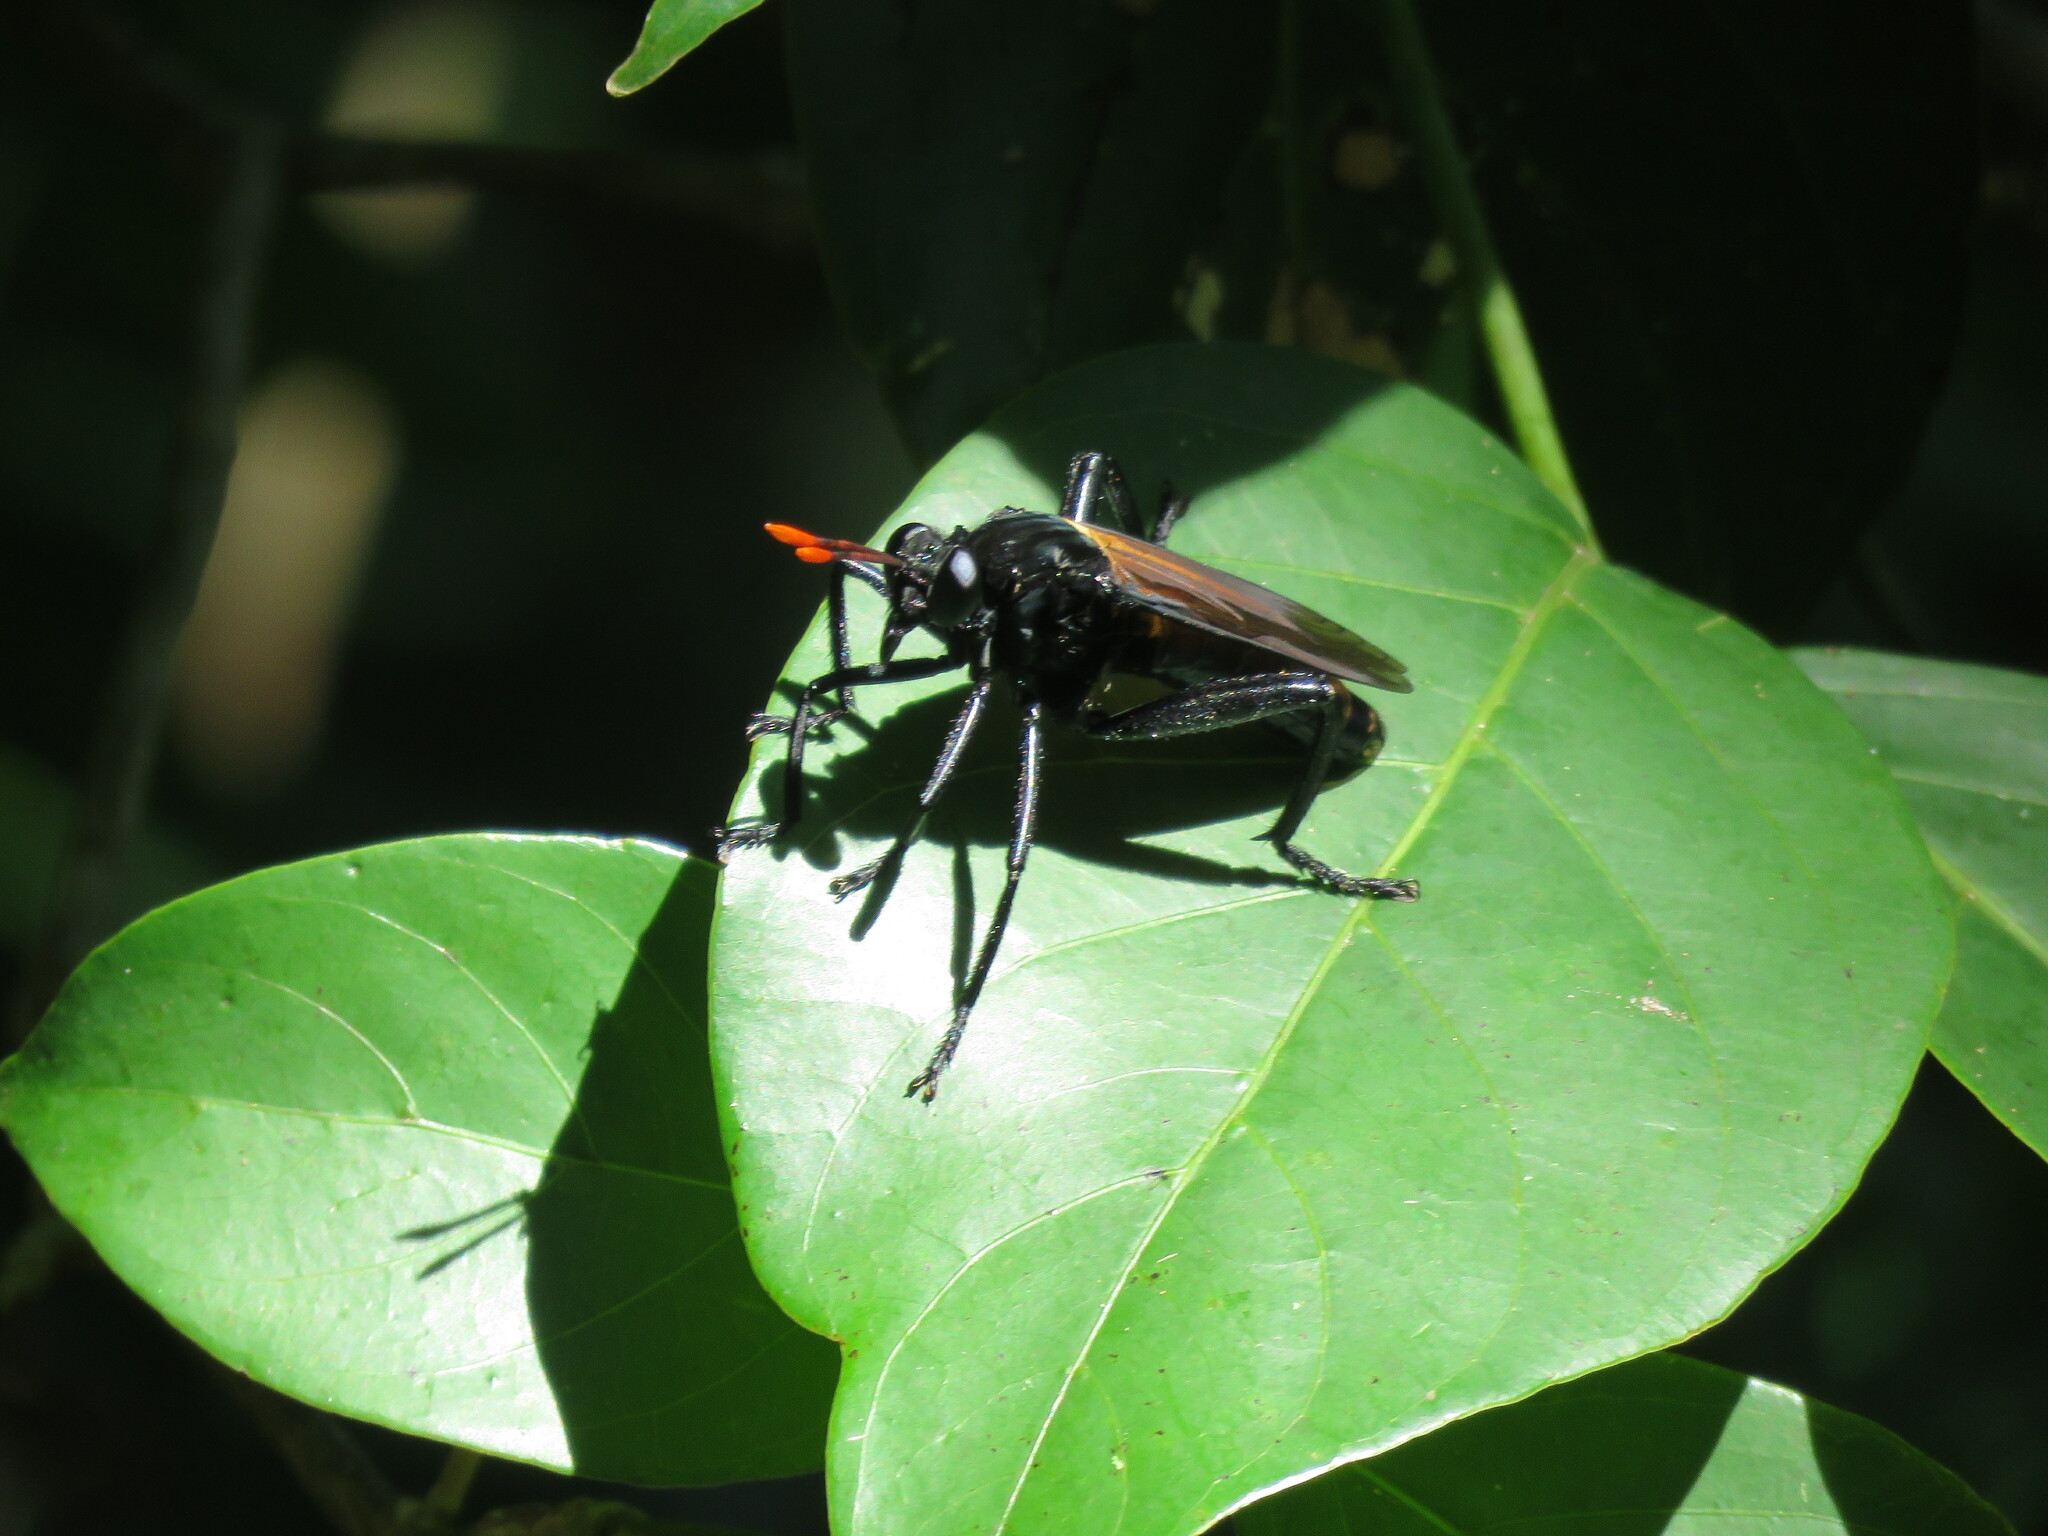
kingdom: Animalia
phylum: Arthropoda
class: Insecta
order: Diptera
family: Mydidae
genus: Gauromydas
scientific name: Gauromydas heros
